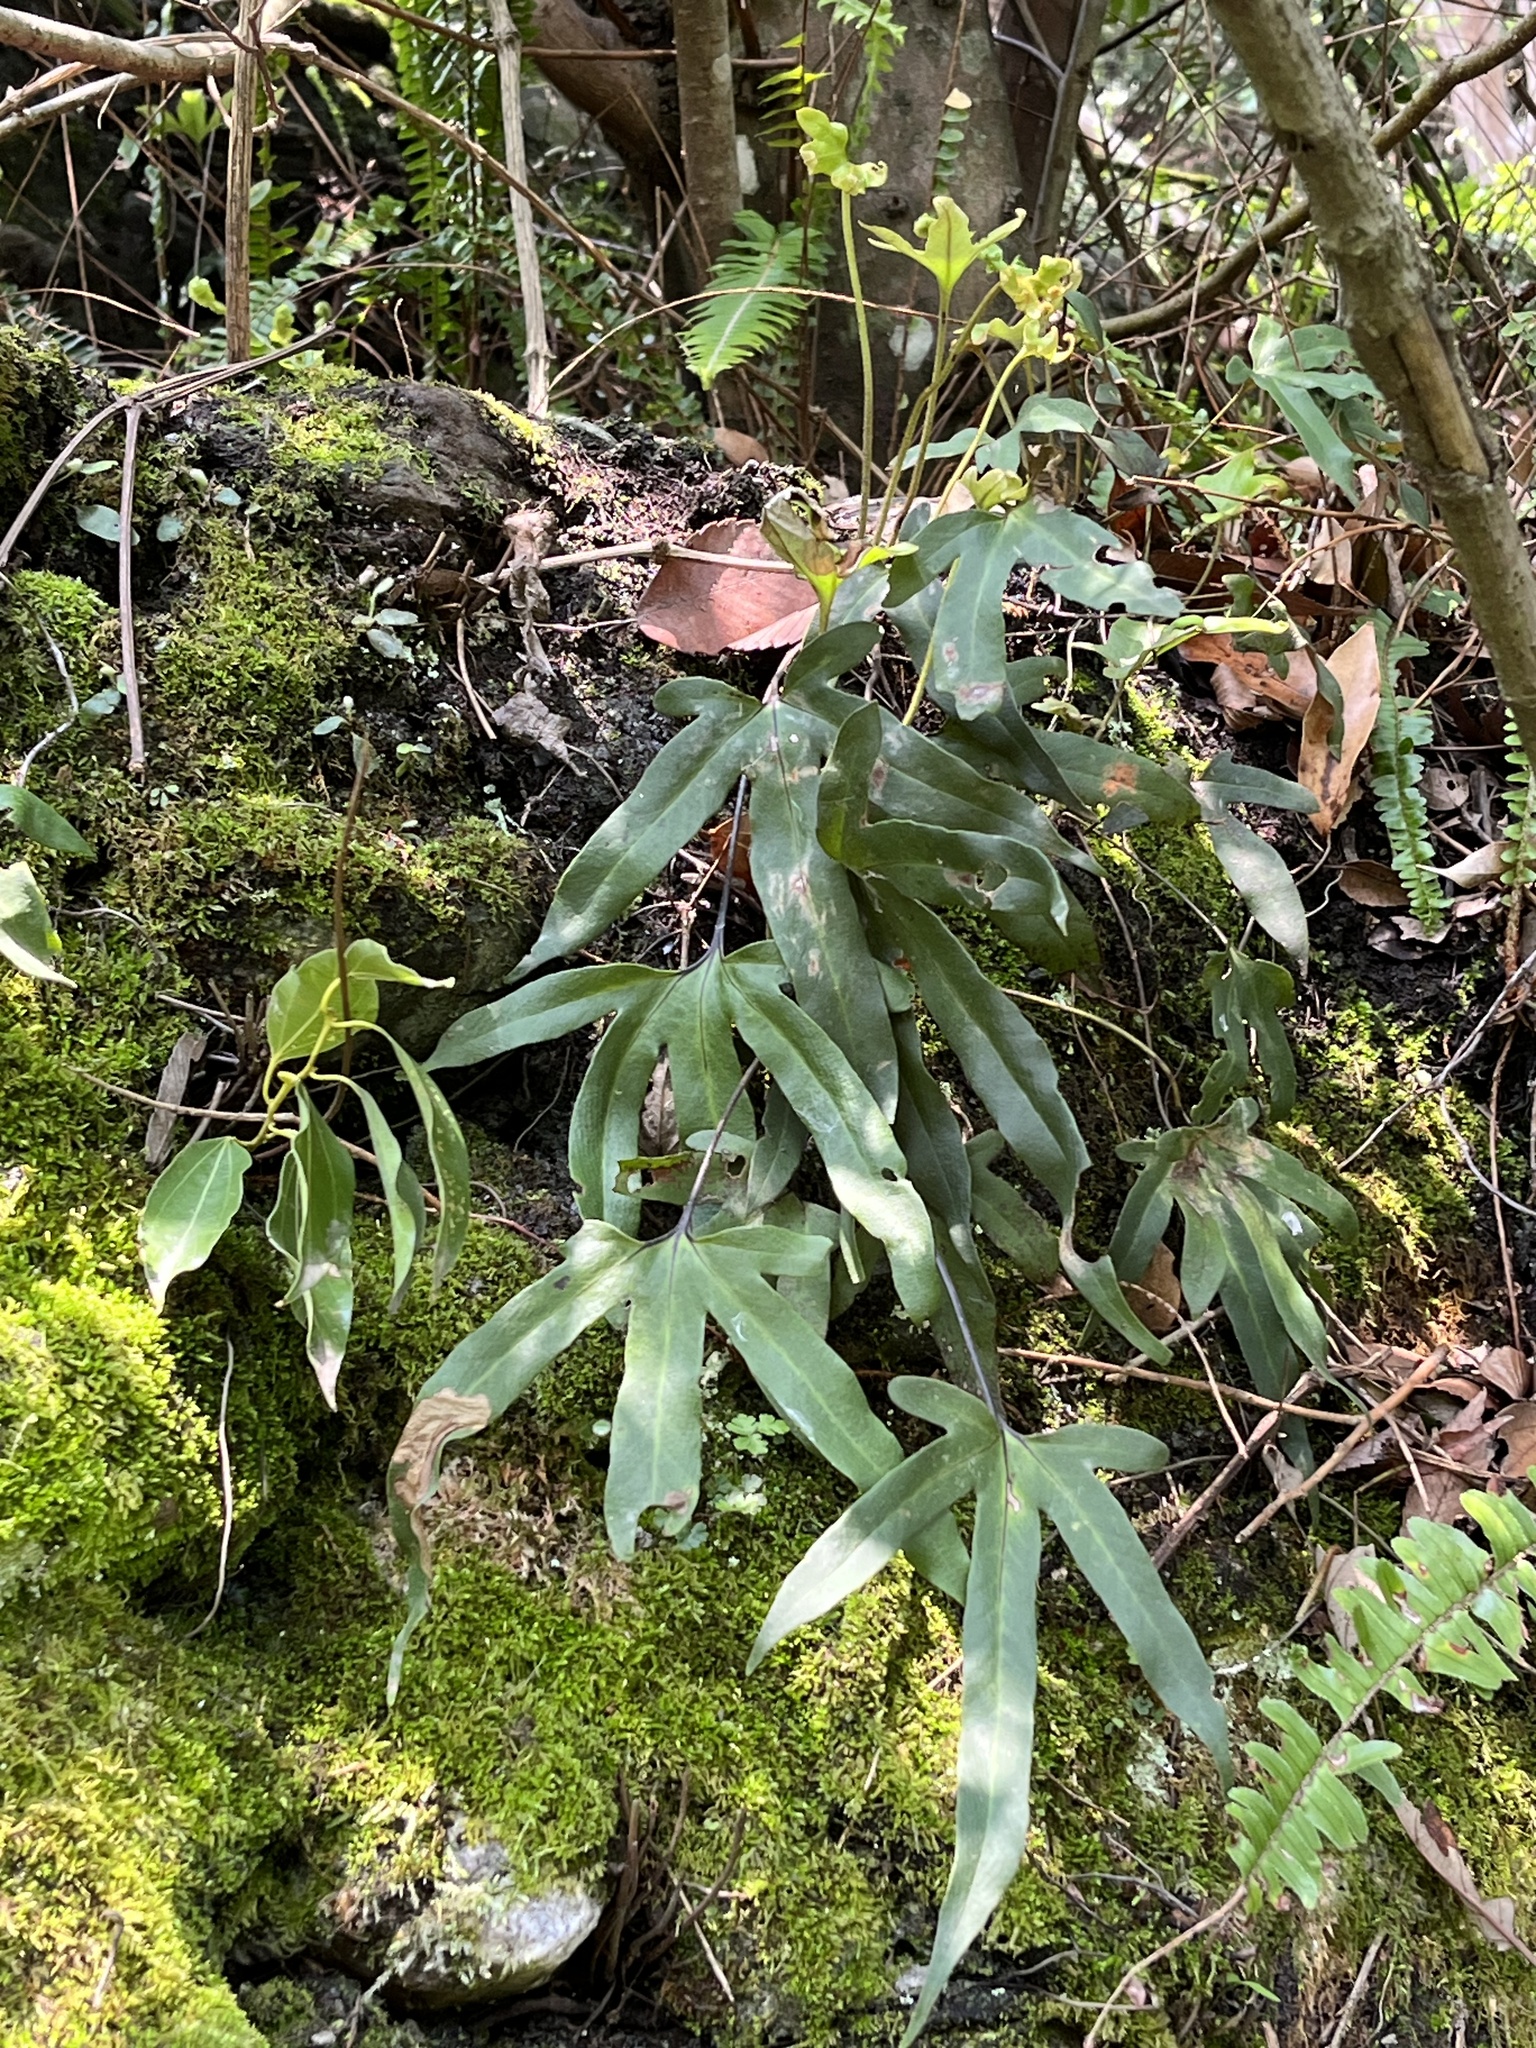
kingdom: Plantae
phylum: Tracheophyta
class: Polypodiopsida
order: Polypodiales
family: Polypodiaceae
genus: Pyrrosia
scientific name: Pyrrosia polydactyla
